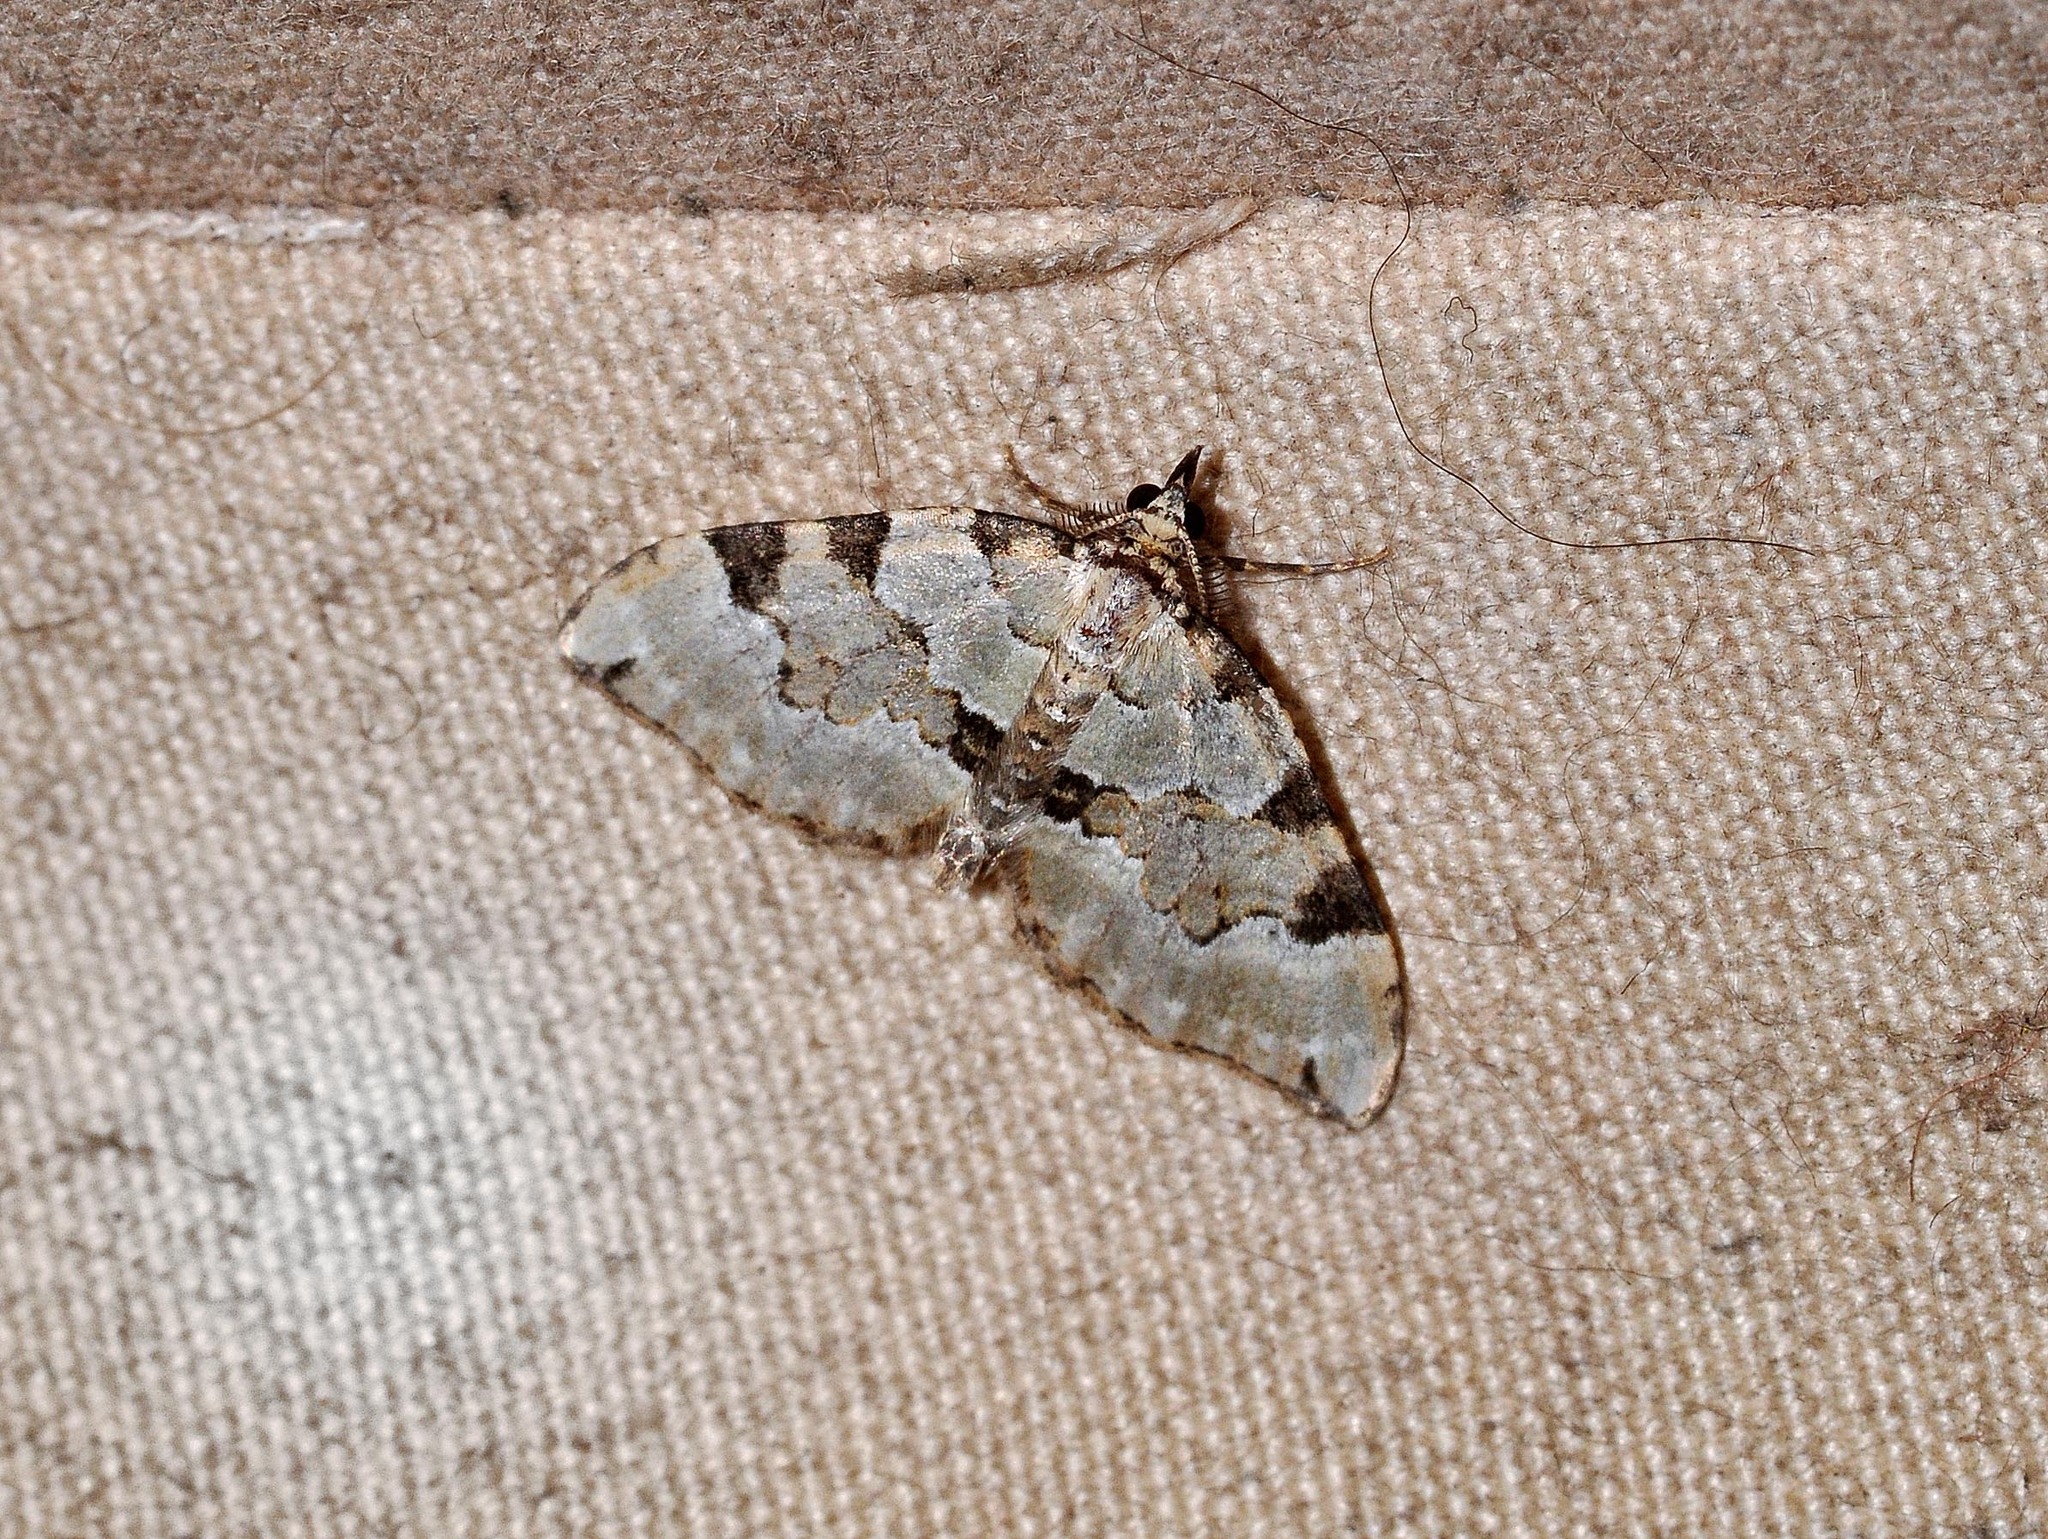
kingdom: Animalia
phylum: Arthropoda
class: Insecta
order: Lepidoptera
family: Geometridae
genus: Colostygia
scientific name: Colostygia pectinataria
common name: Green carpet
